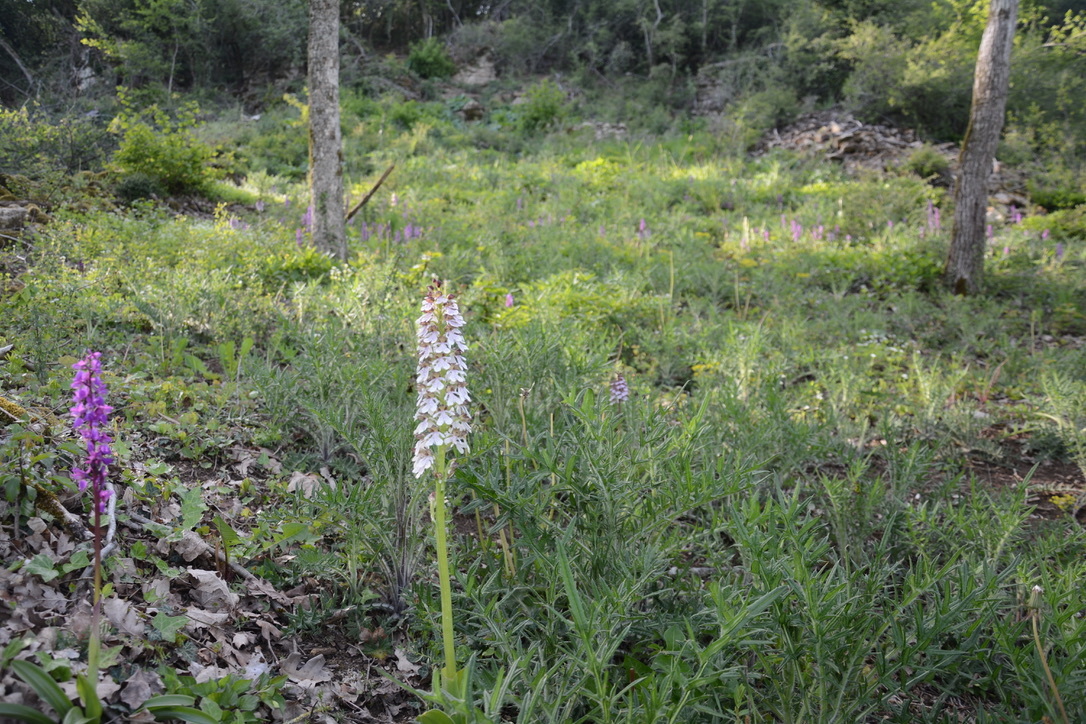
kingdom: Plantae
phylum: Tracheophyta
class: Liliopsida
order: Asparagales
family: Orchidaceae
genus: Orchis
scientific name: Orchis purpurea
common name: Lady orchid
